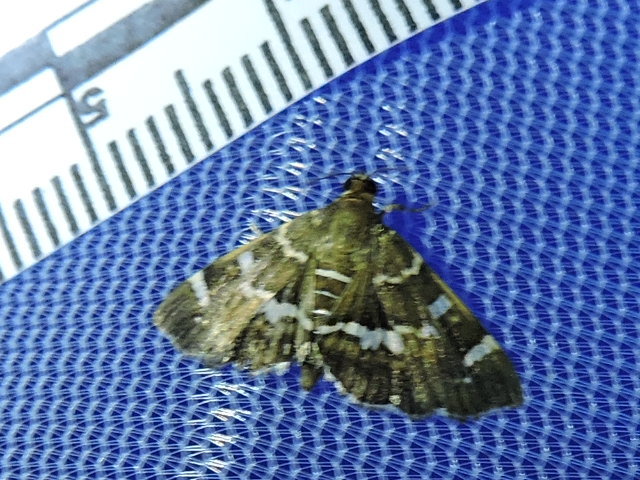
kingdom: Animalia
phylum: Arthropoda
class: Insecta
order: Lepidoptera
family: Crambidae
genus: Hymenia
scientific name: Hymenia perspectalis
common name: Spotted beet webworm
